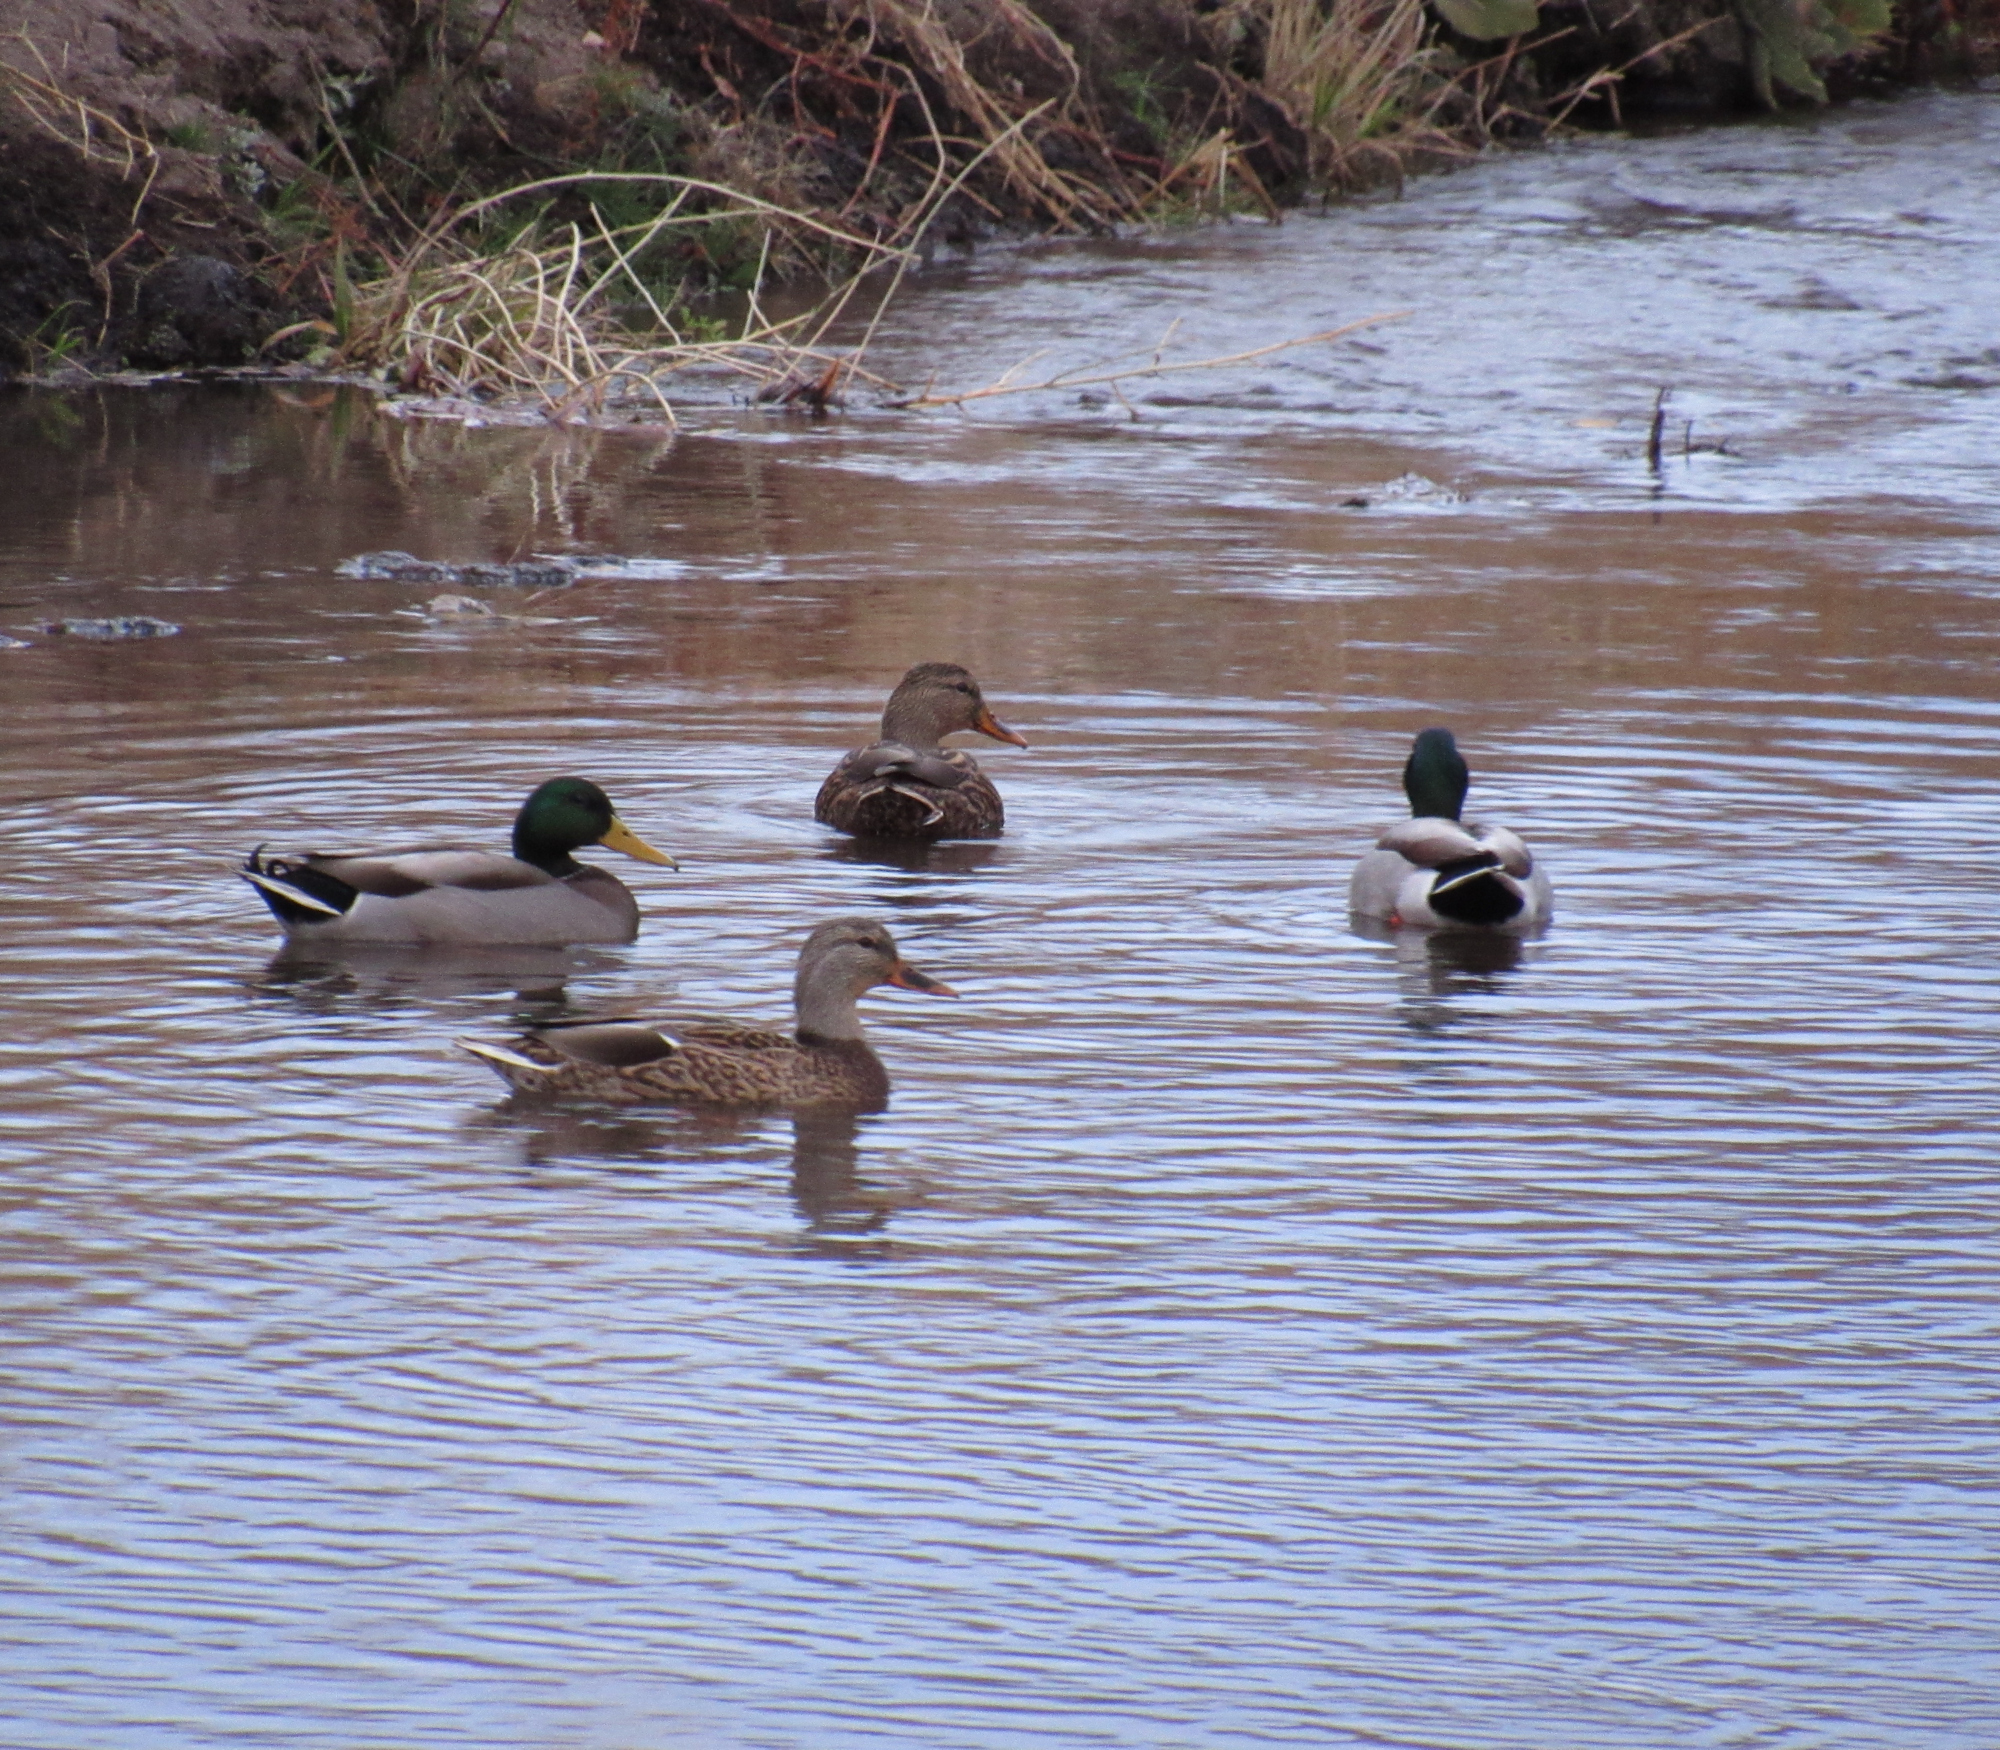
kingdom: Animalia
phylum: Chordata
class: Aves
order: Anseriformes
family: Anatidae
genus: Anas
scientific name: Anas platyrhynchos
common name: Mallard
